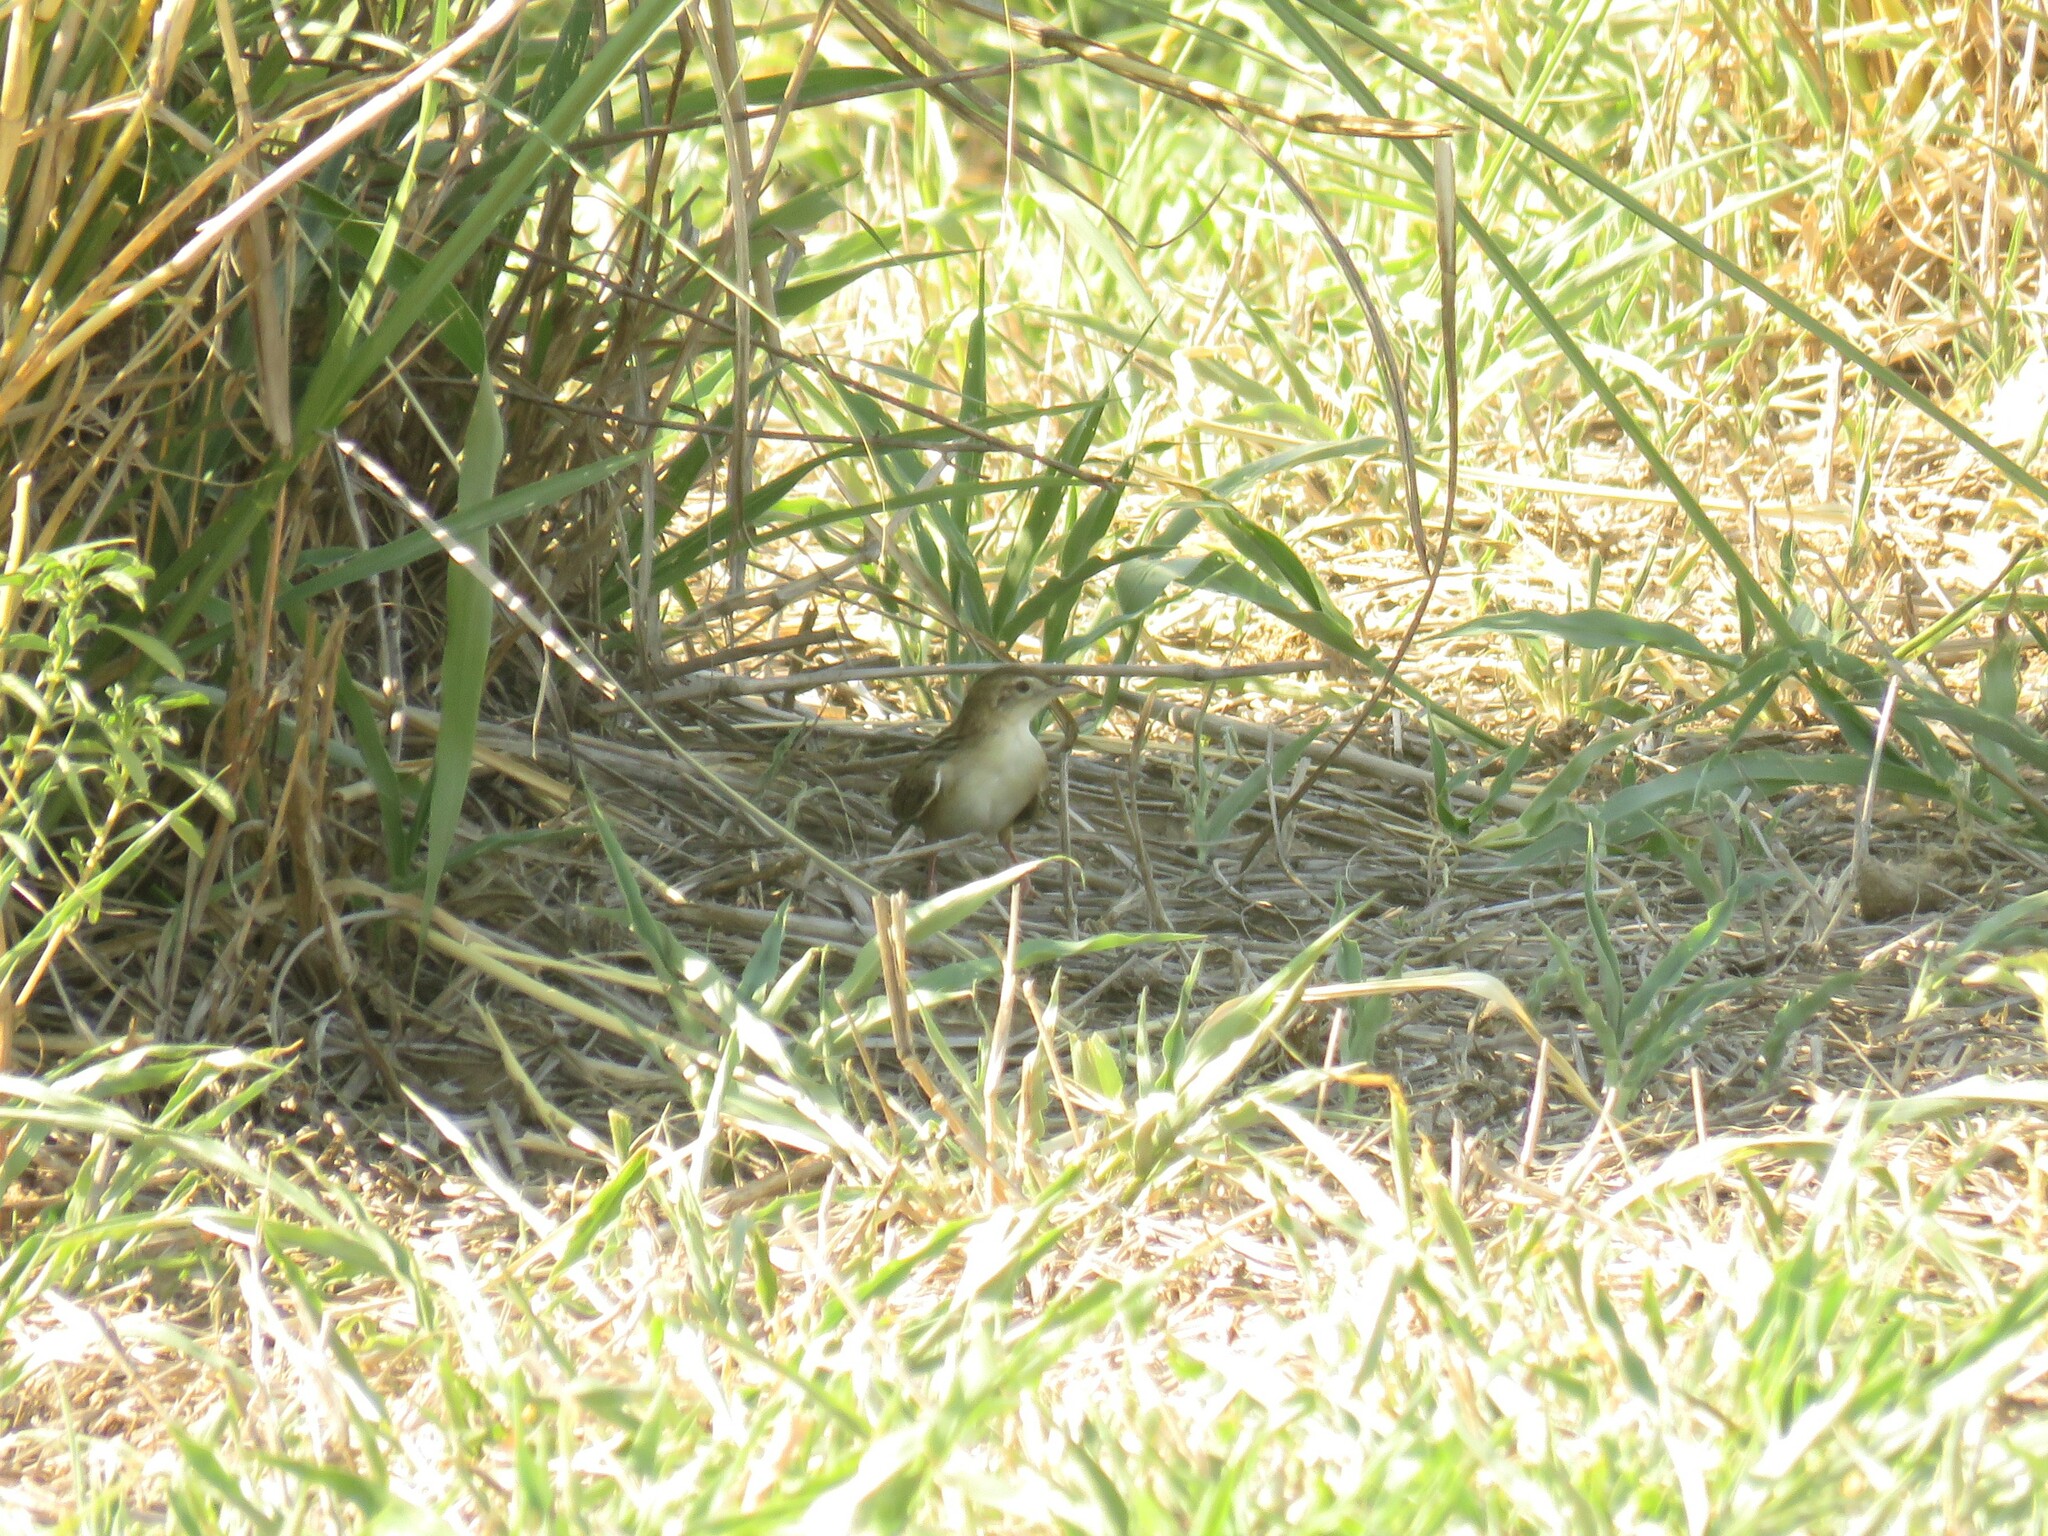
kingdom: Animalia
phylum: Chordata
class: Aves
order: Passeriformes
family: Cisticolidae
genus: Cisticola
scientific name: Cisticola juncidis
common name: Zitting cisticola
